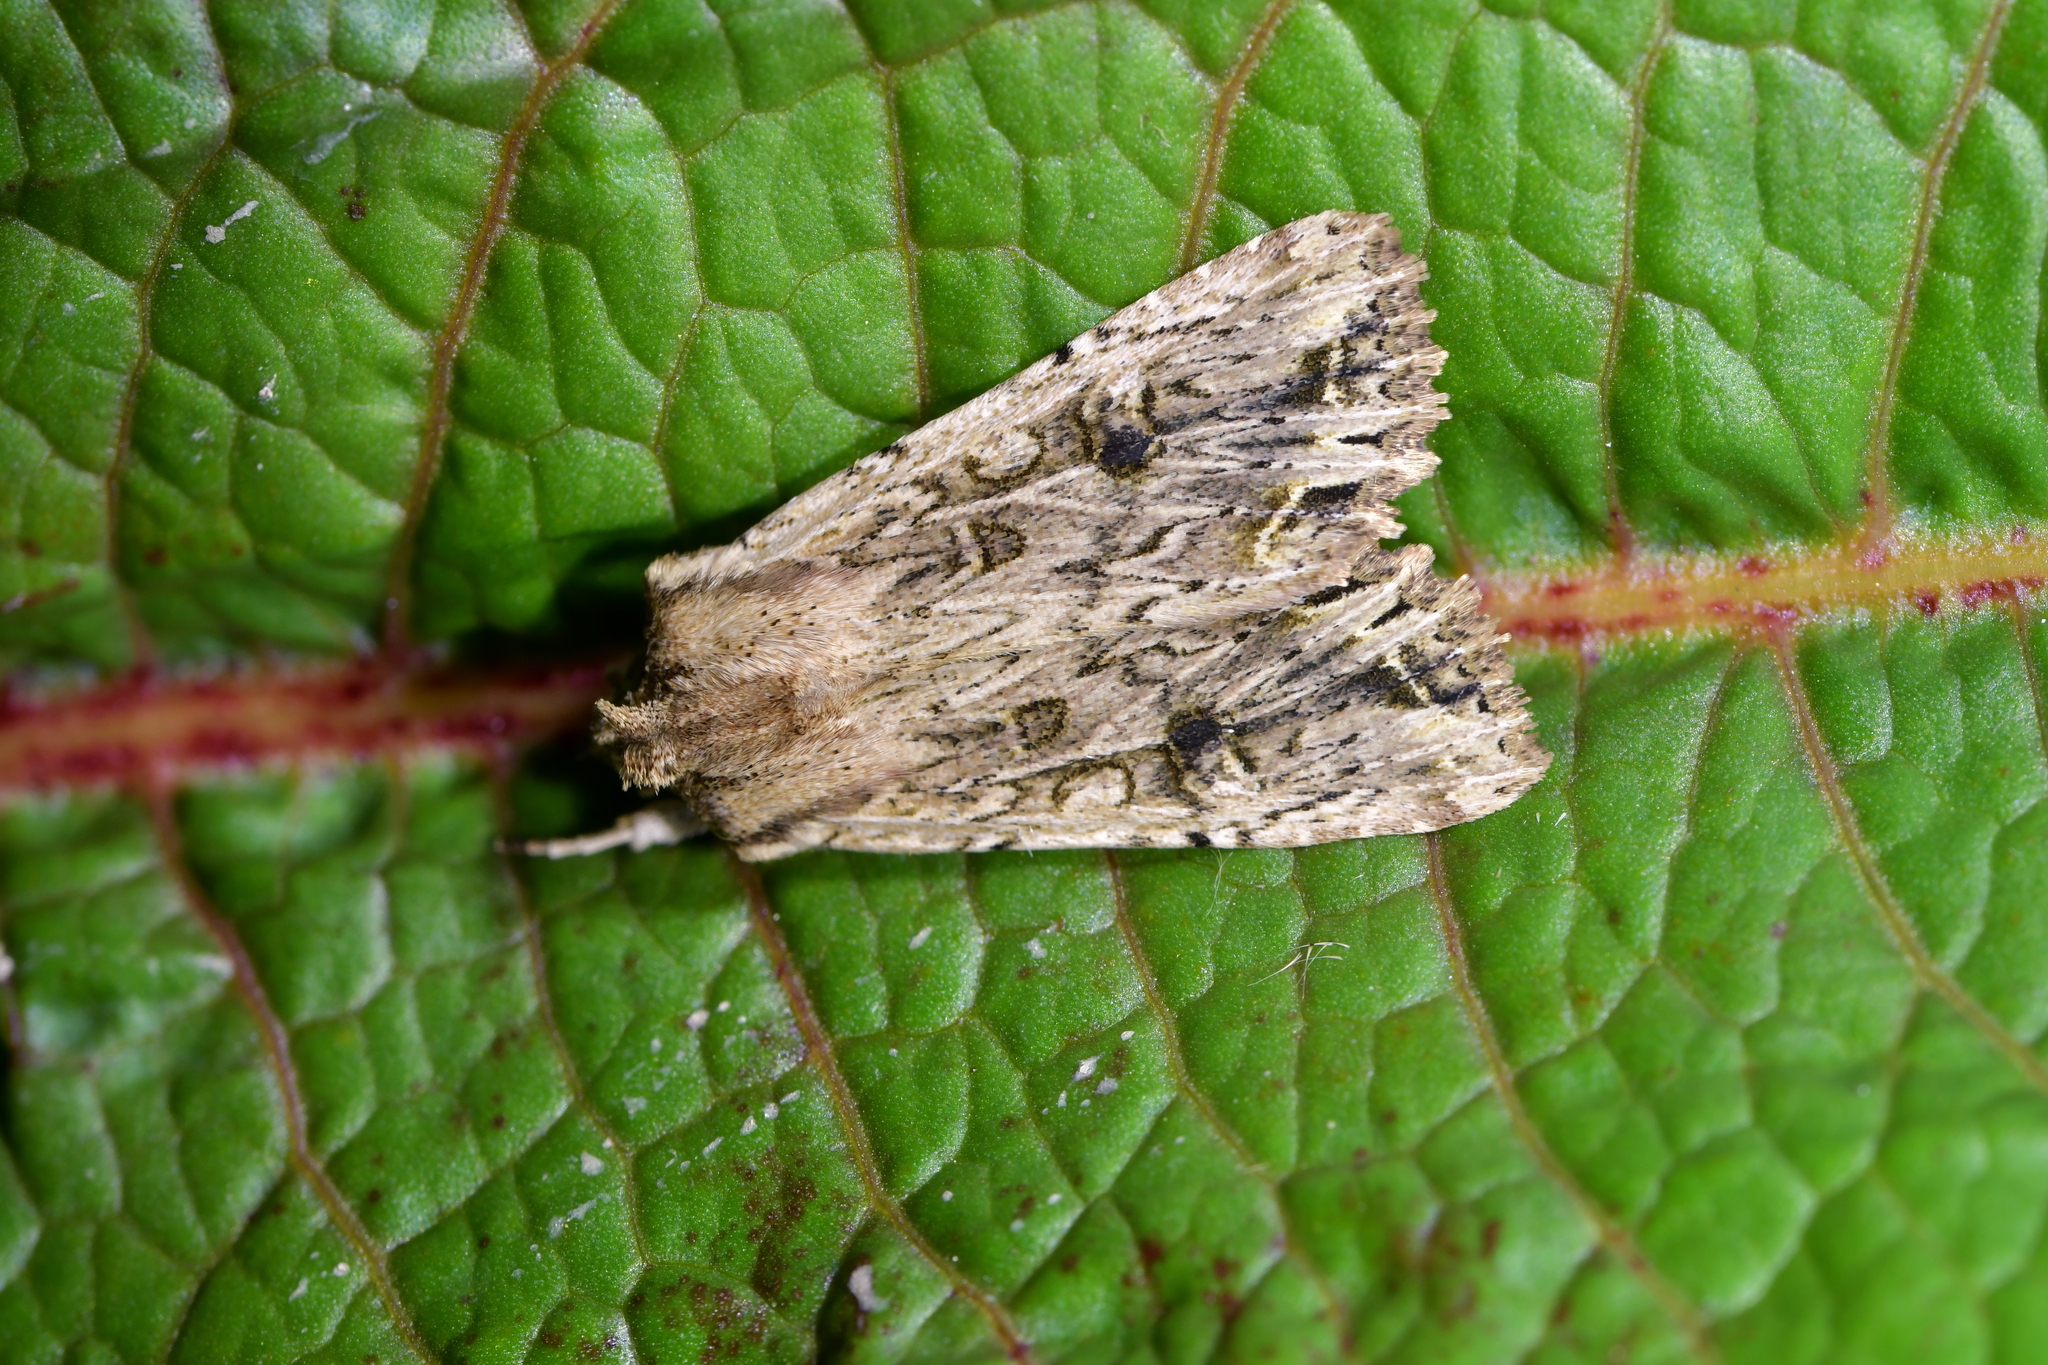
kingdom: Animalia
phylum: Arthropoda
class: Insecta
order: Lepidoptera
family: Noctuidae
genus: Ichneutica
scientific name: Ichneutica lignana
